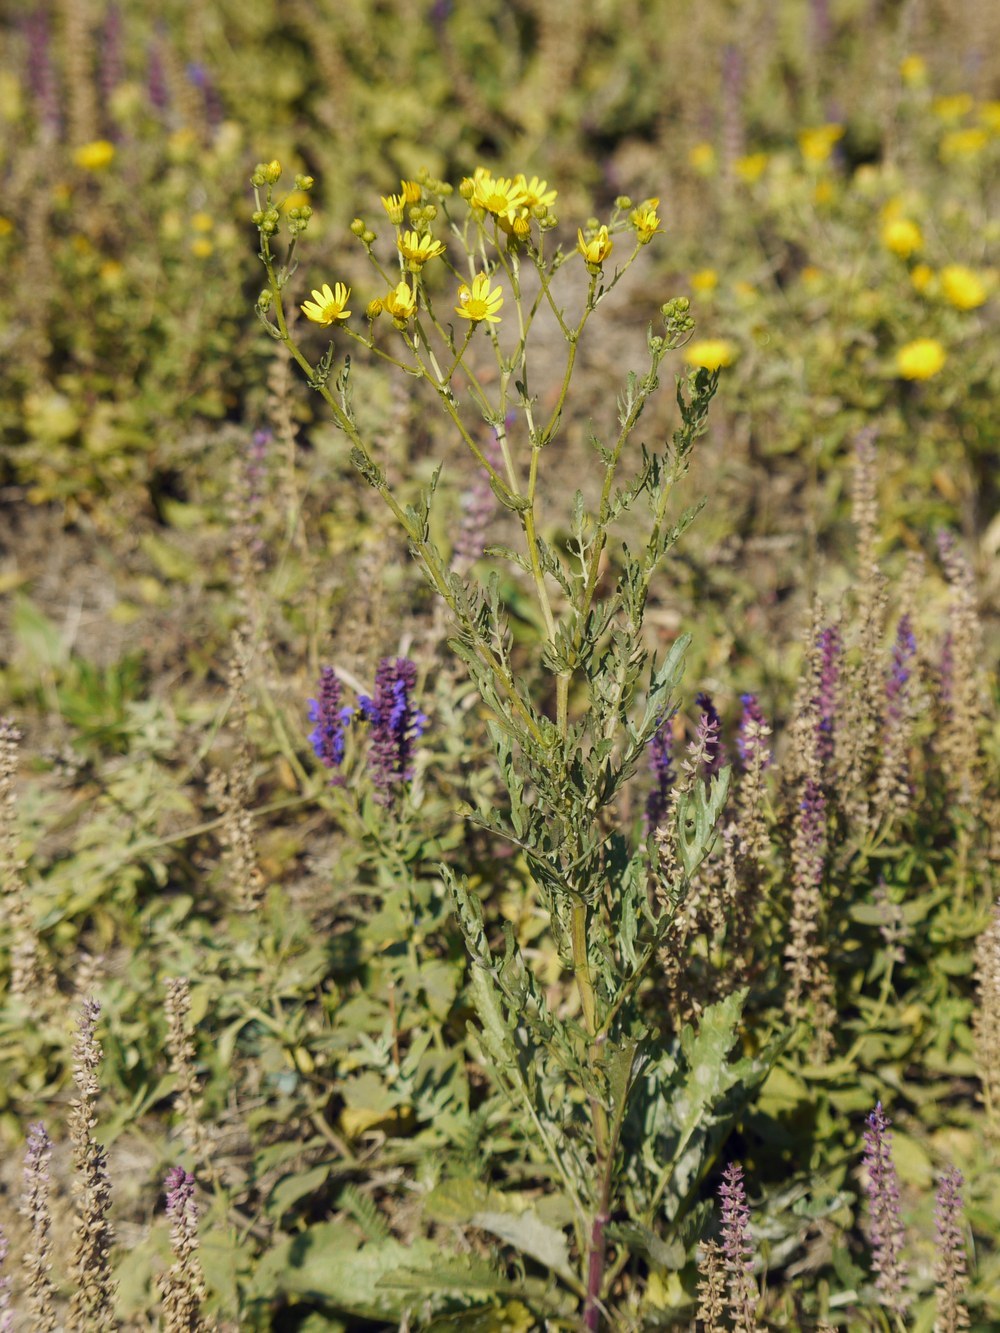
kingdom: Plantae
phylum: Tracheophyta
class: Magnoliopsida
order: Asterales
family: Asteraceae
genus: Jacobaea
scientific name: Jacobaea vulgaris
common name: Stinking willie
